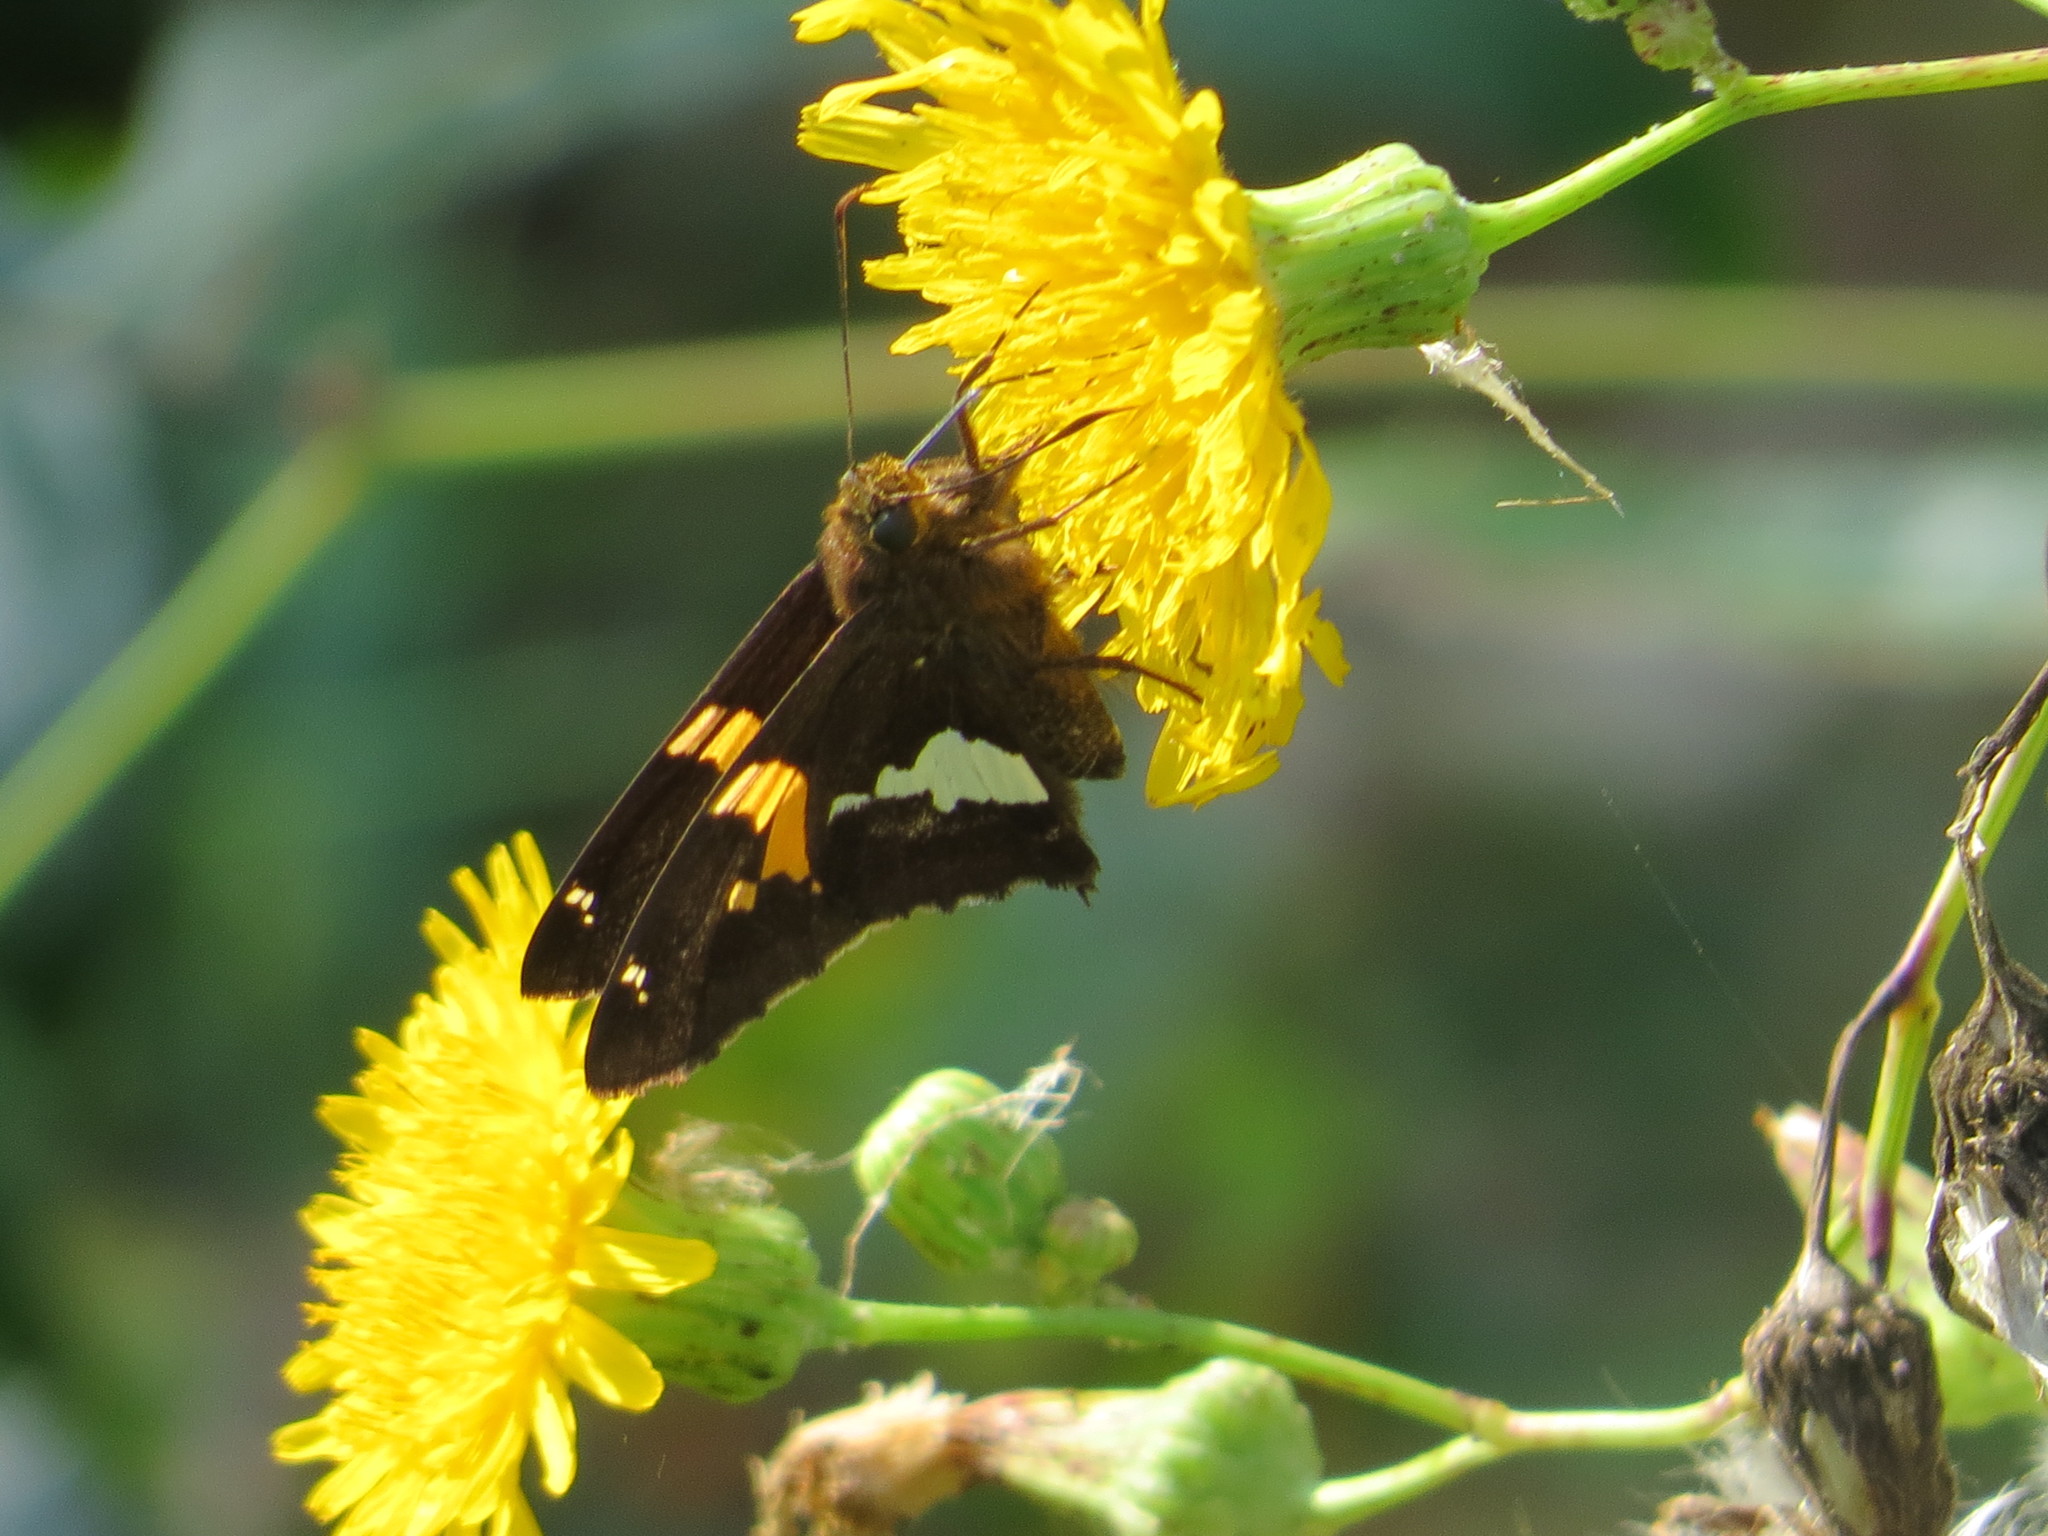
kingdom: Animalia
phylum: Arthropoda
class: Insecta
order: Lepidoptera
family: Hesperiidae
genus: Epargyreus
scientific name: Epargyreus clarus
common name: Silver-spotted skipper
